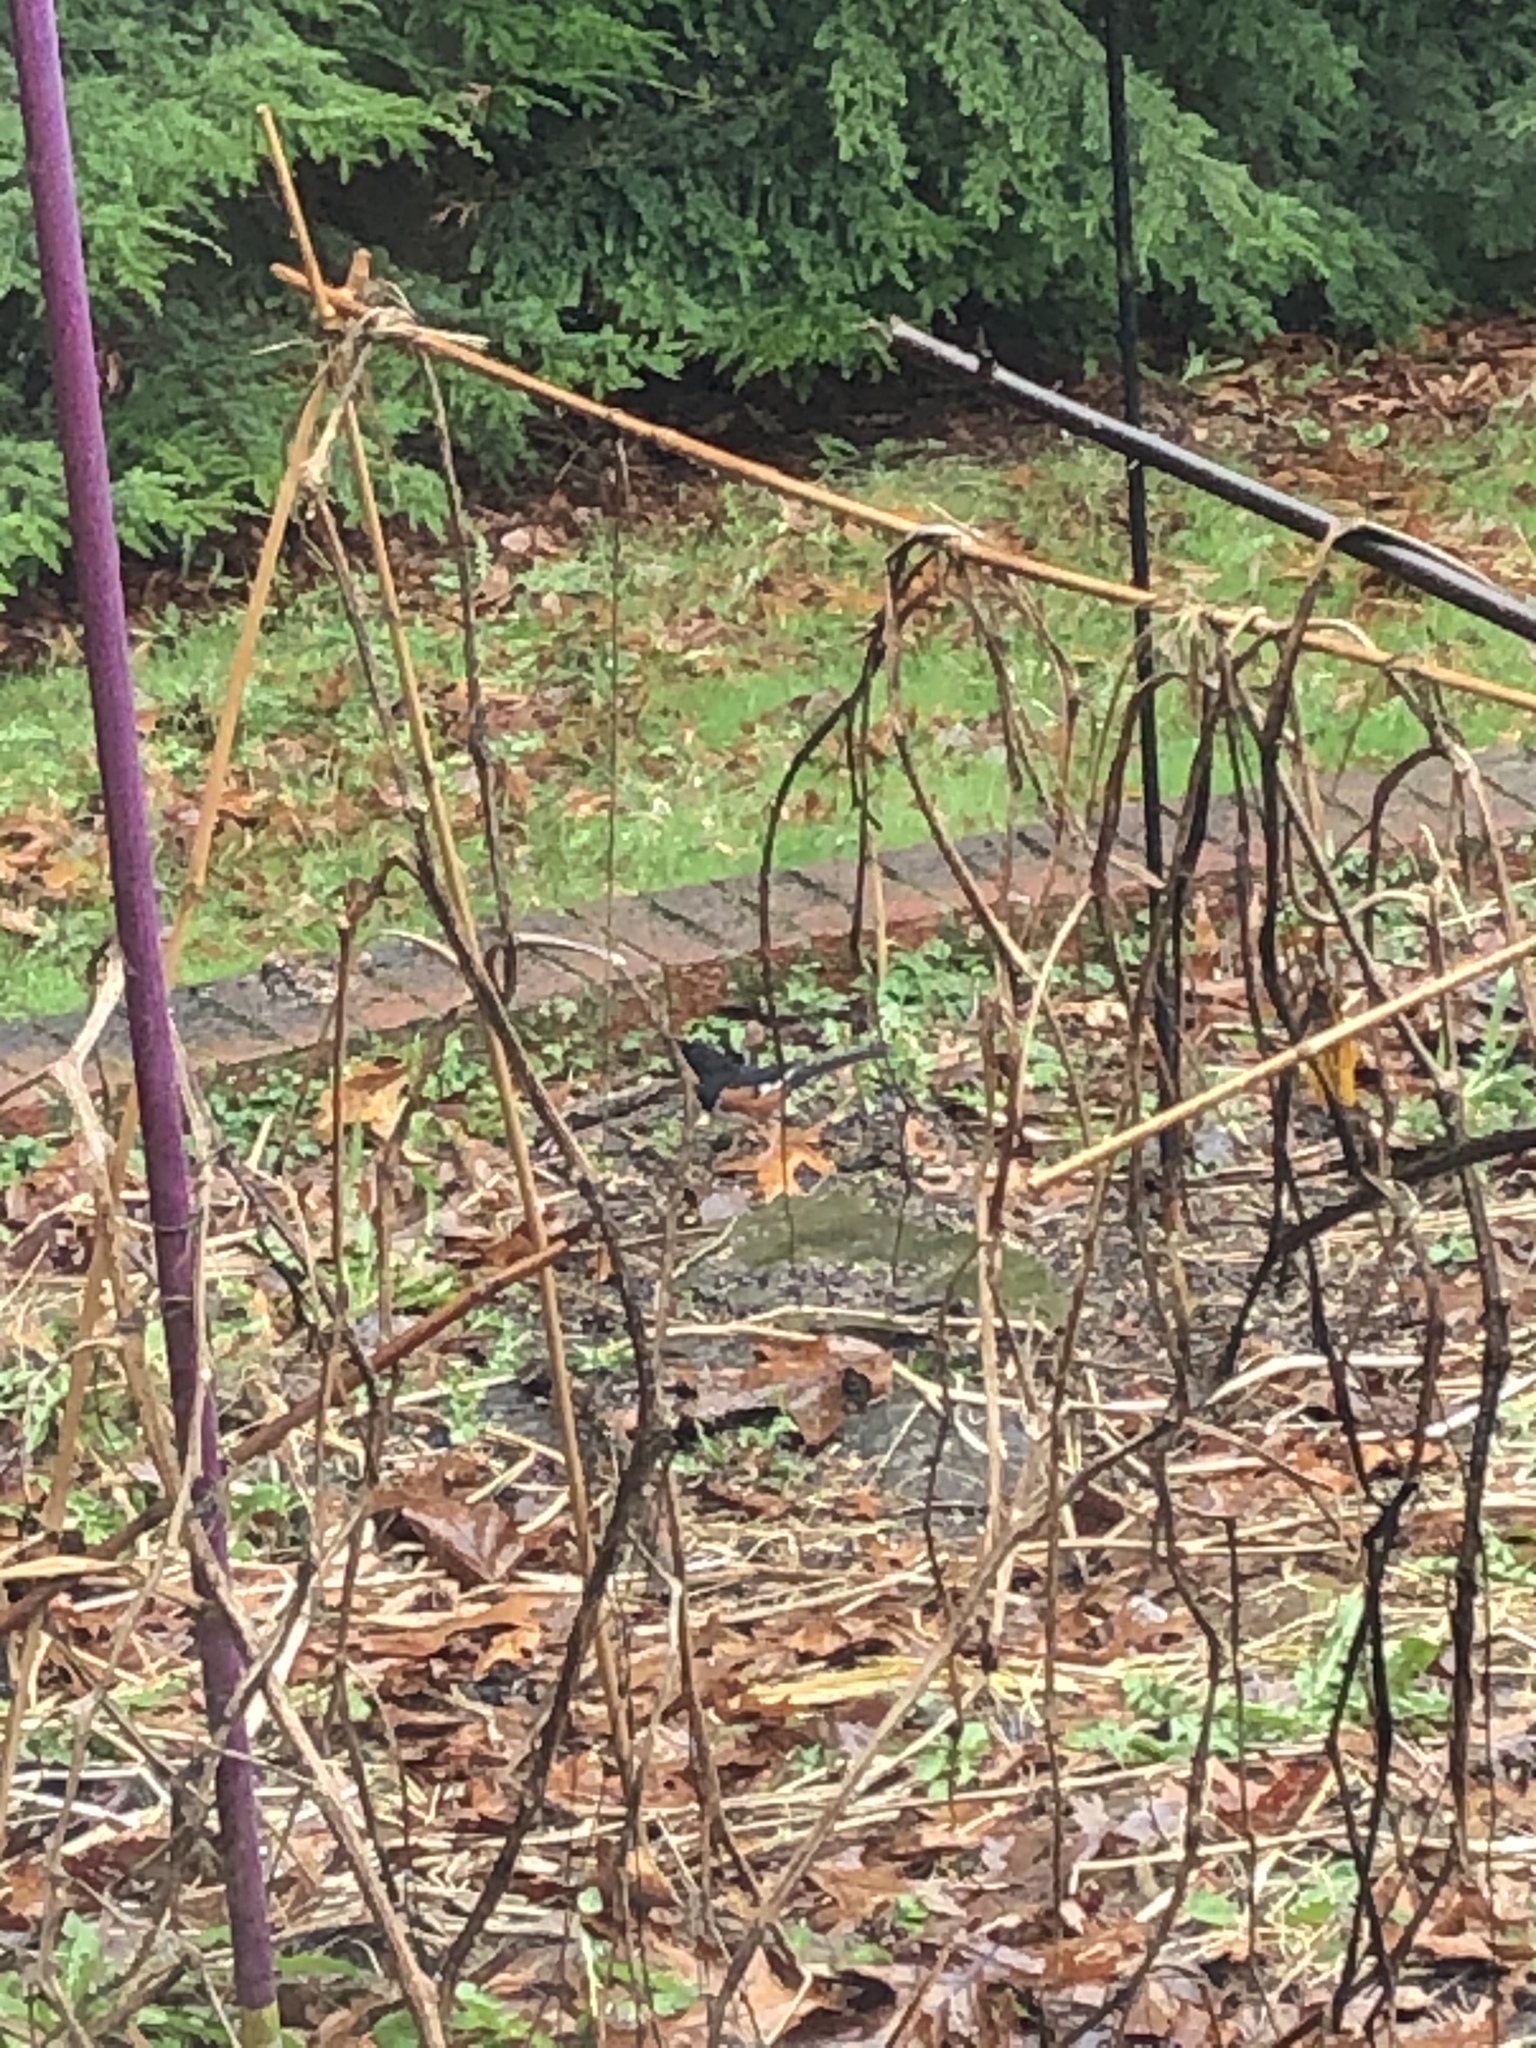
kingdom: Animalia
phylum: Chordata
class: Aves
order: Passeriformes
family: Passerellidae
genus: Pipilo
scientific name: Pipilo erythrophthalmus
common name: Eastern towhee
